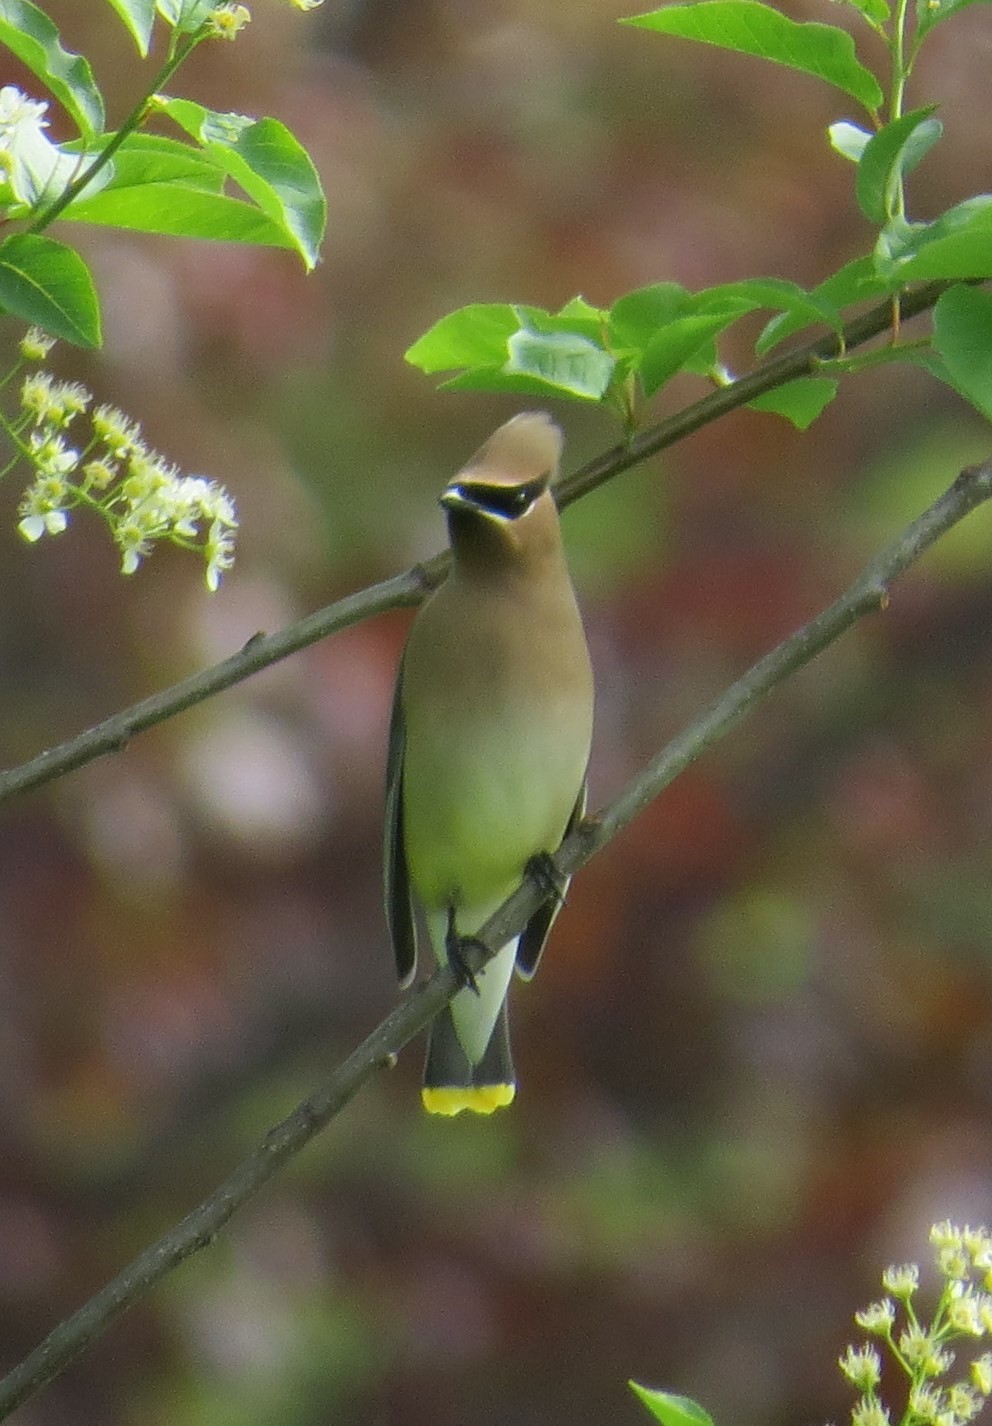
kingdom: Animalia
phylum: Chordata
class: Aves
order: Passeriformes
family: Bombycillidae
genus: Bombycilla
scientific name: Bombycilla cedrorum
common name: Cedar waxwing
